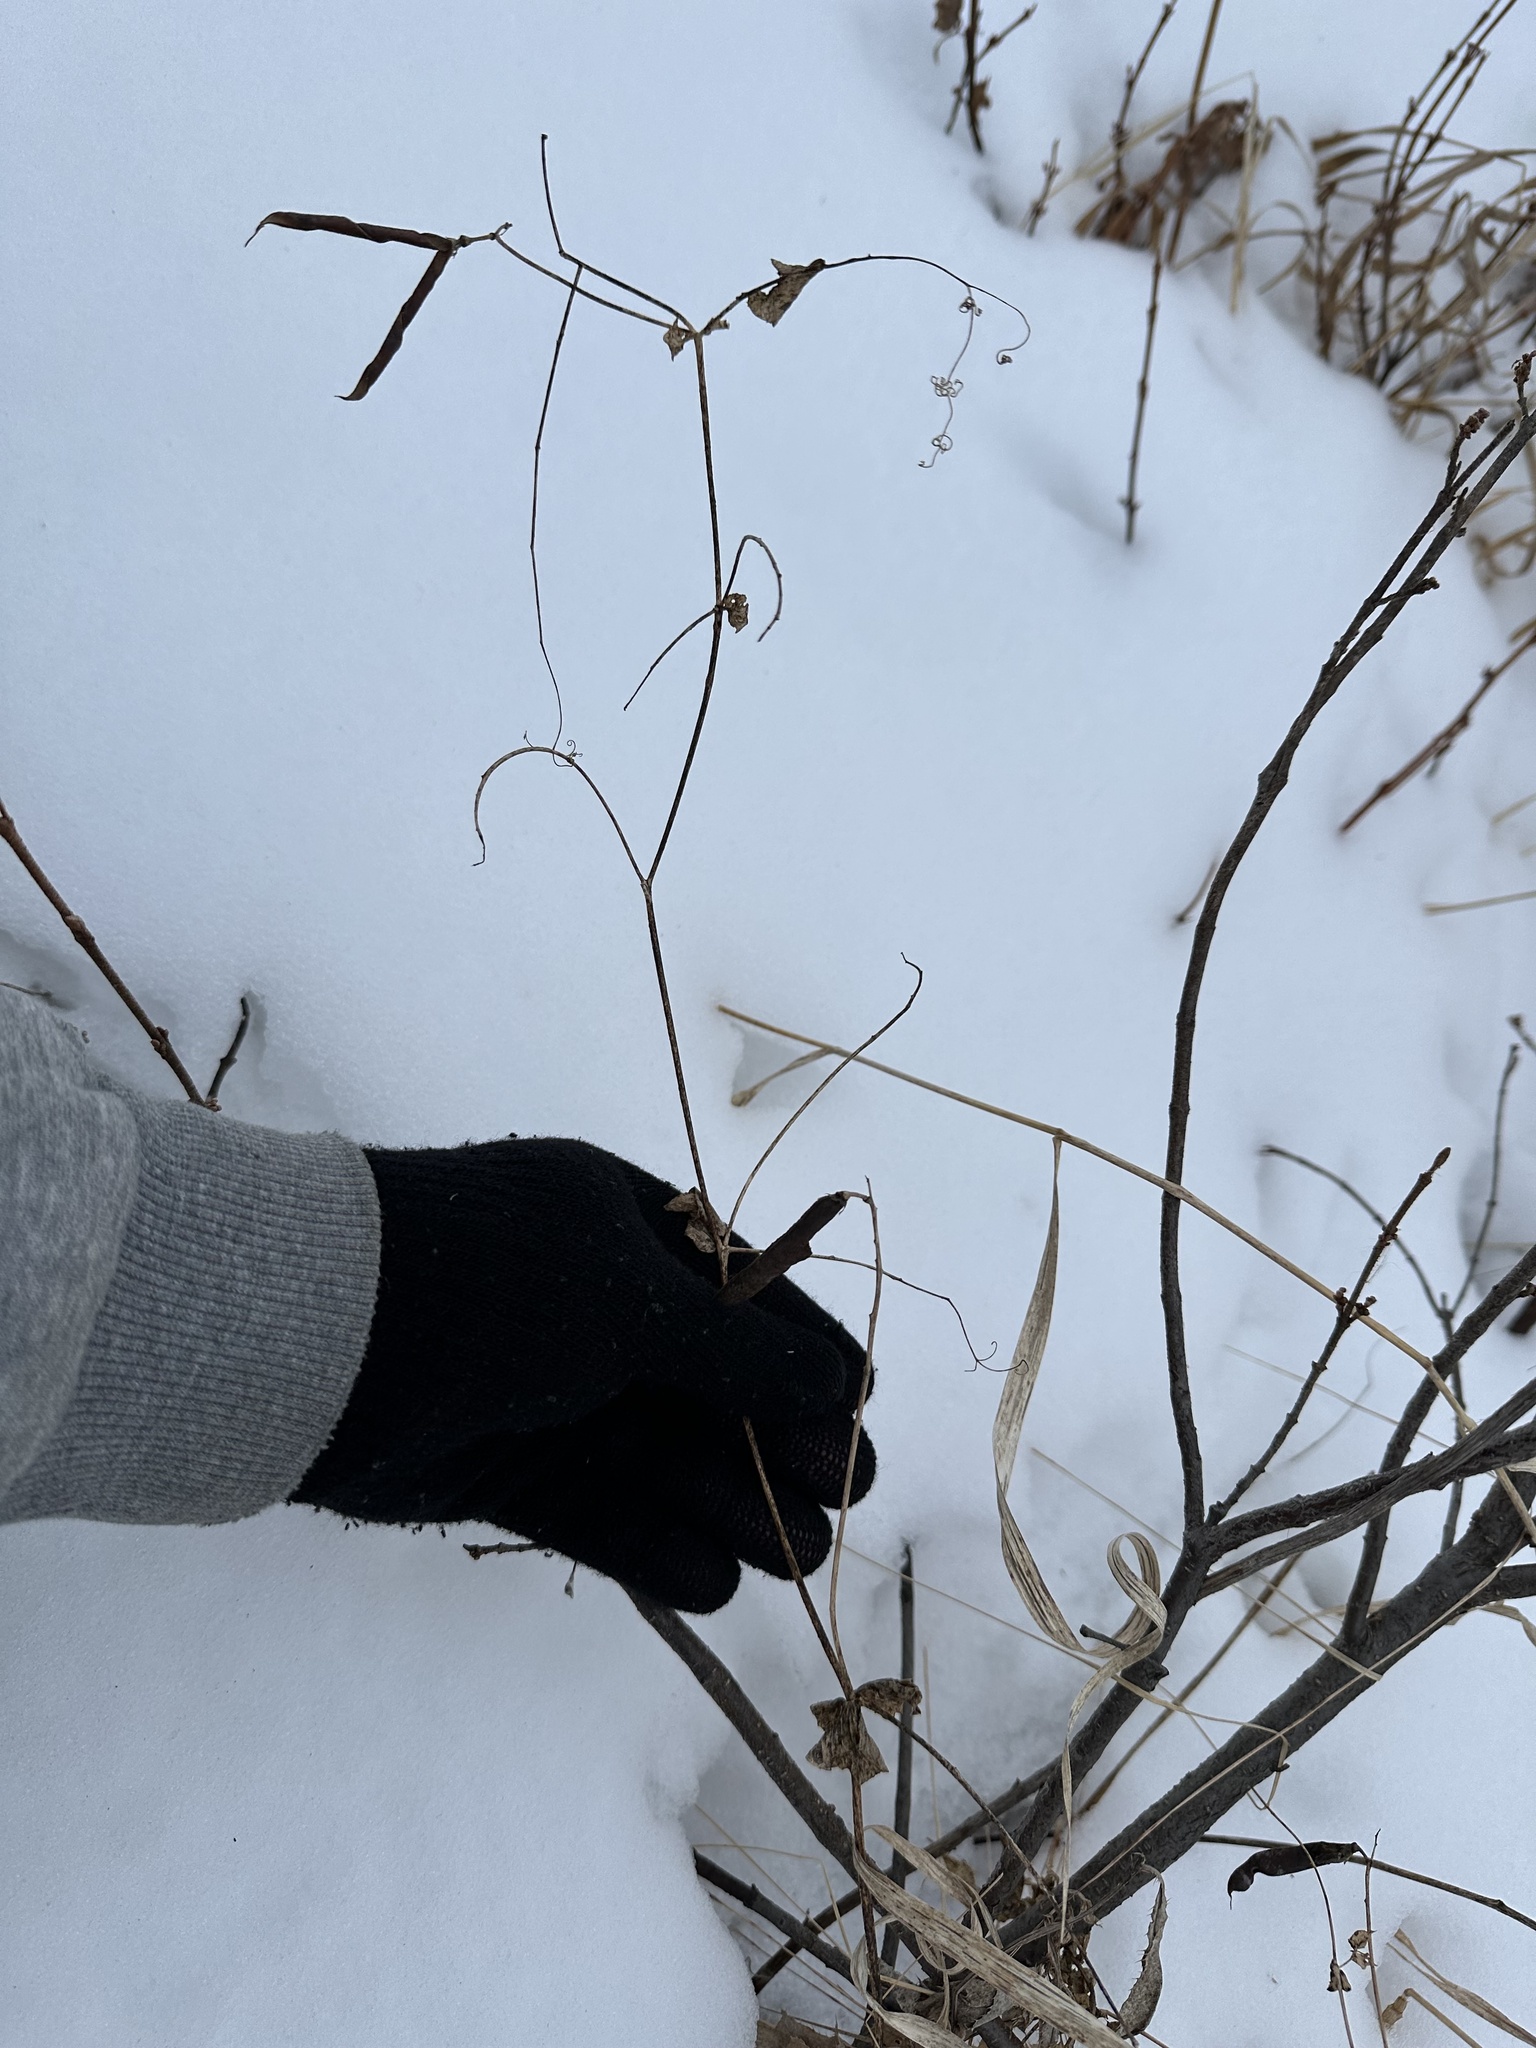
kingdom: Plantae
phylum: Tracheophyta
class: Magnoliopsida
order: Fabales
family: Fabaceae
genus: Lathyrus
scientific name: Lathyrus ochroleucus
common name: Pale vetchling
